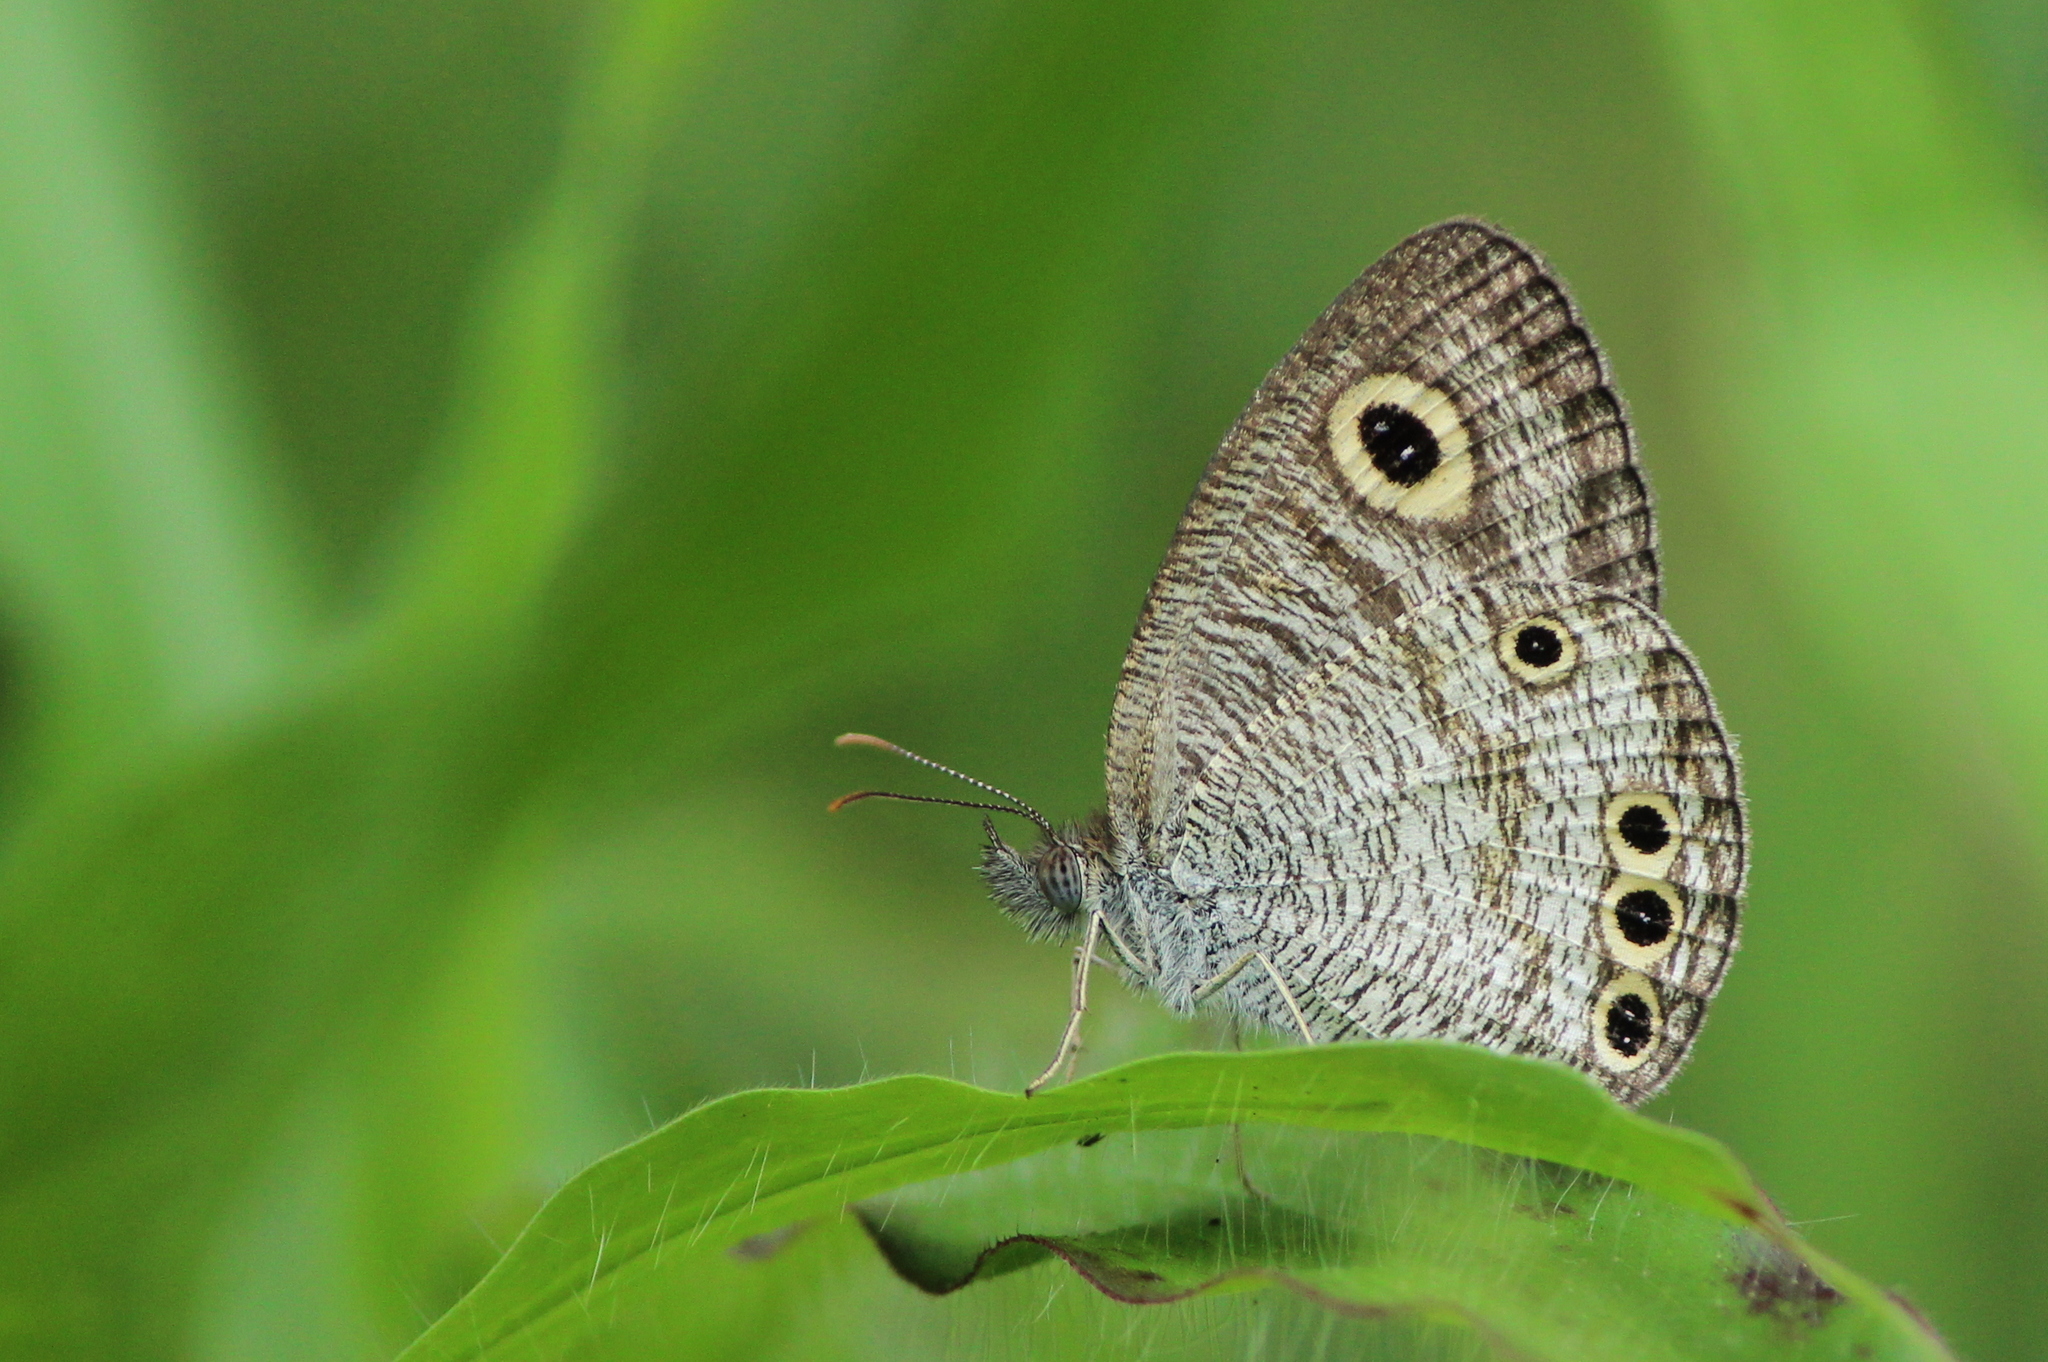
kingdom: Animalia
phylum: Arthropoda
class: Insecta
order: Lepidoptera
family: Nymphalidae
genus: Ypthima
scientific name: Ypthima huebneri
